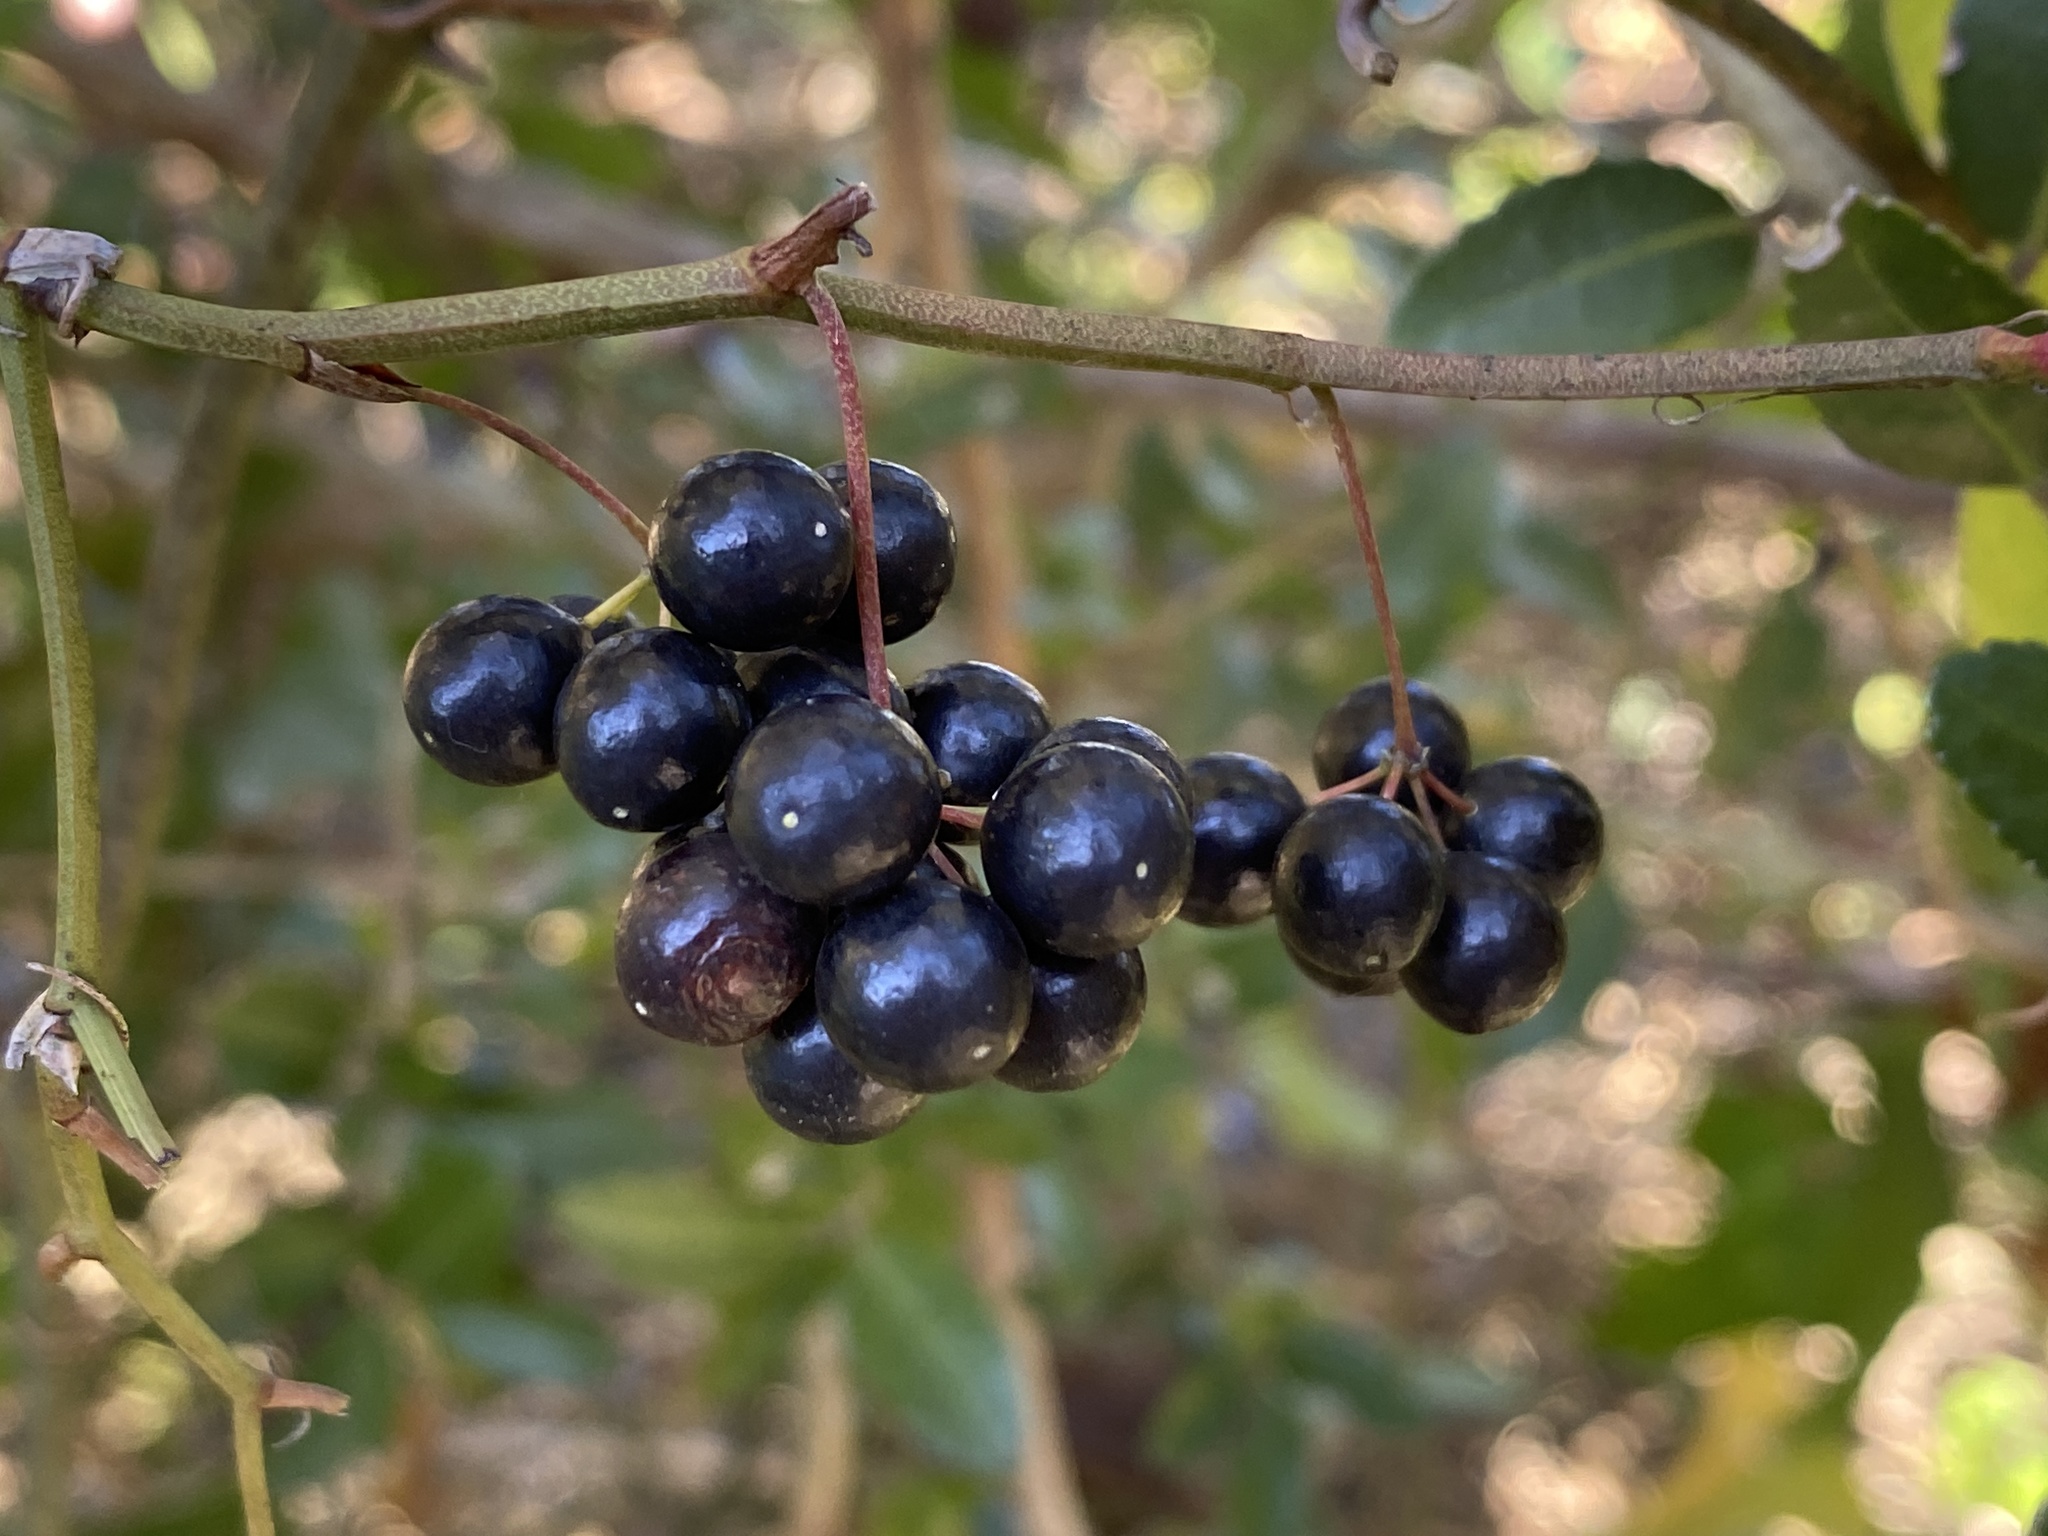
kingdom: Plantae
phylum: Tracheophyta
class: Liliopsida
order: Liliales
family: Smilacaceae
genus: Smilax
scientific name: Smilax bona-nox
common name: Catbrier
